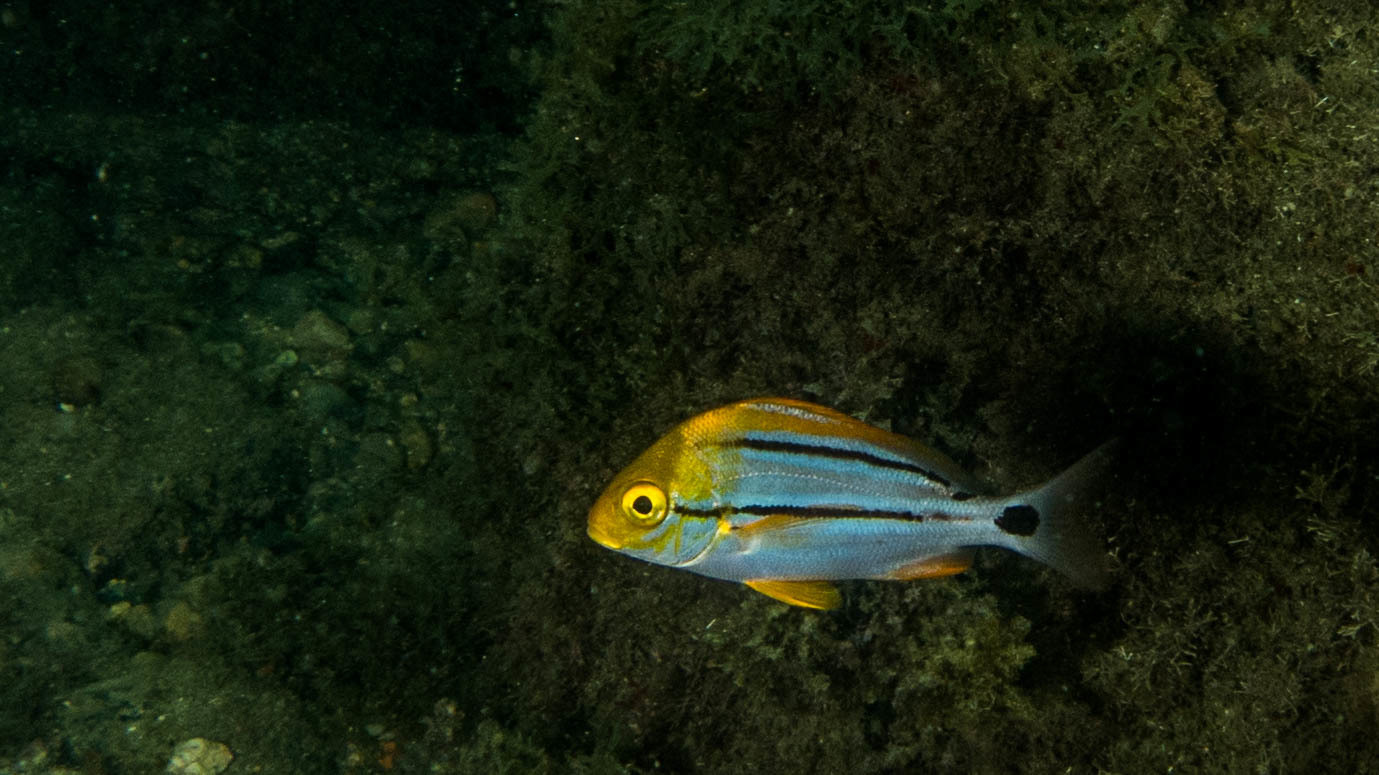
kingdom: Animalia
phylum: Chordata
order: Perciformes
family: Haemulidae
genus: Anisotremus
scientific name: Anisotremus virginicus
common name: Porkfish
